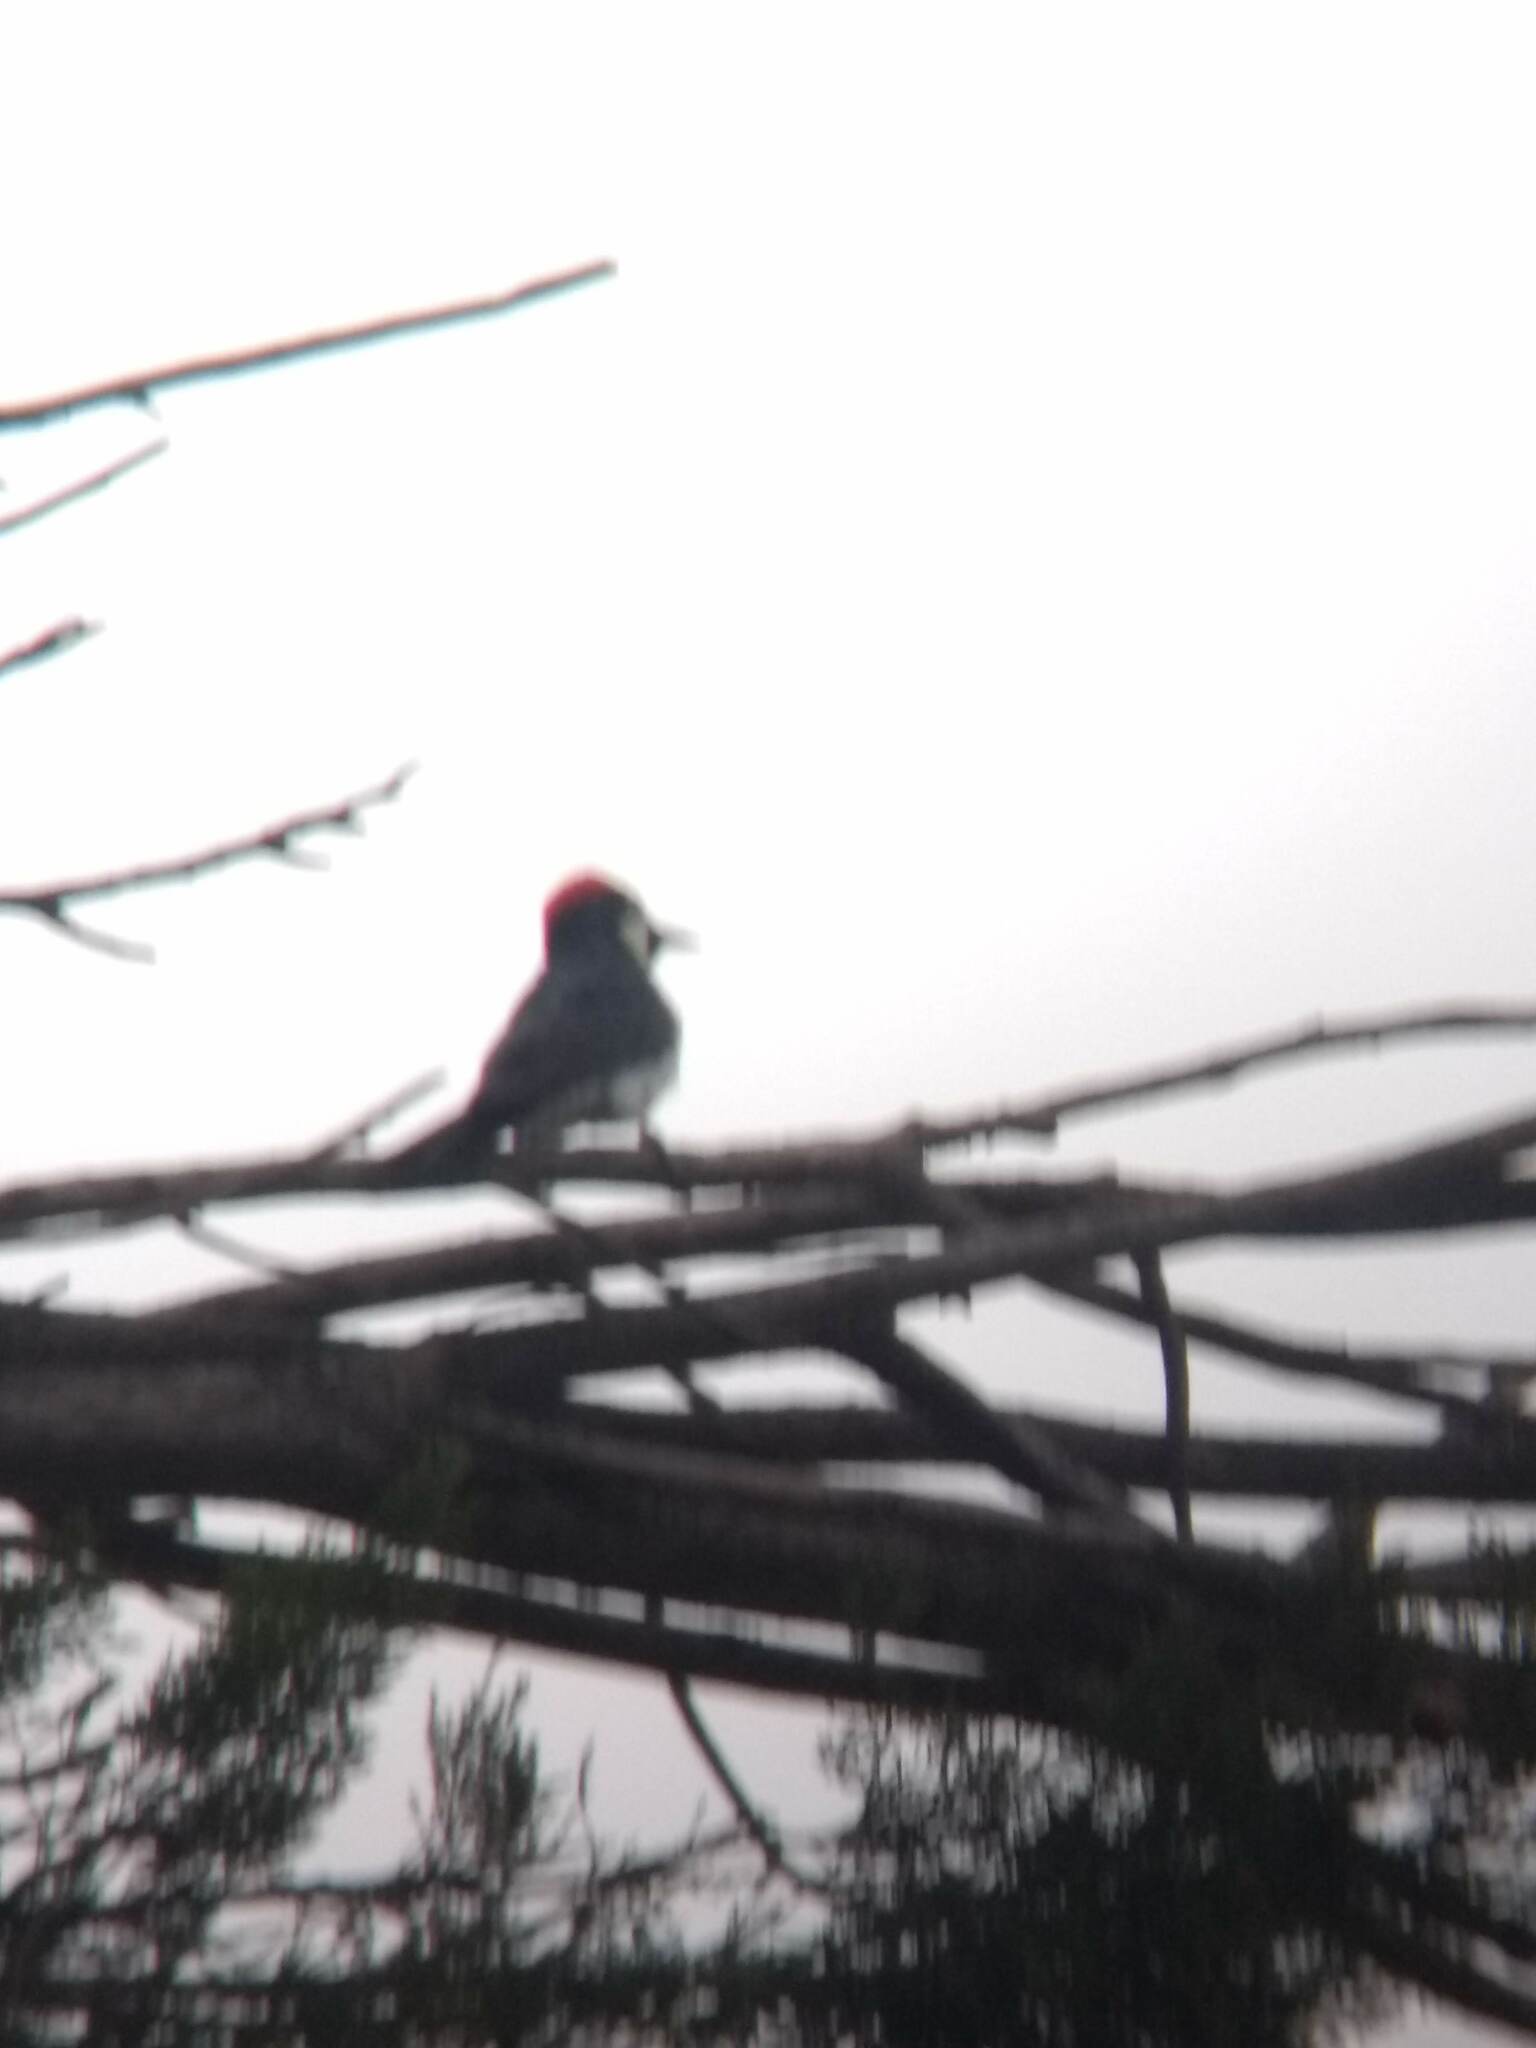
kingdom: Animalia
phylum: Chordata
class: Aves
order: Piciformes
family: Picidae
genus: Melanerpes
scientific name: Melanerpes formicivorus
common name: Acorn woodpecker
